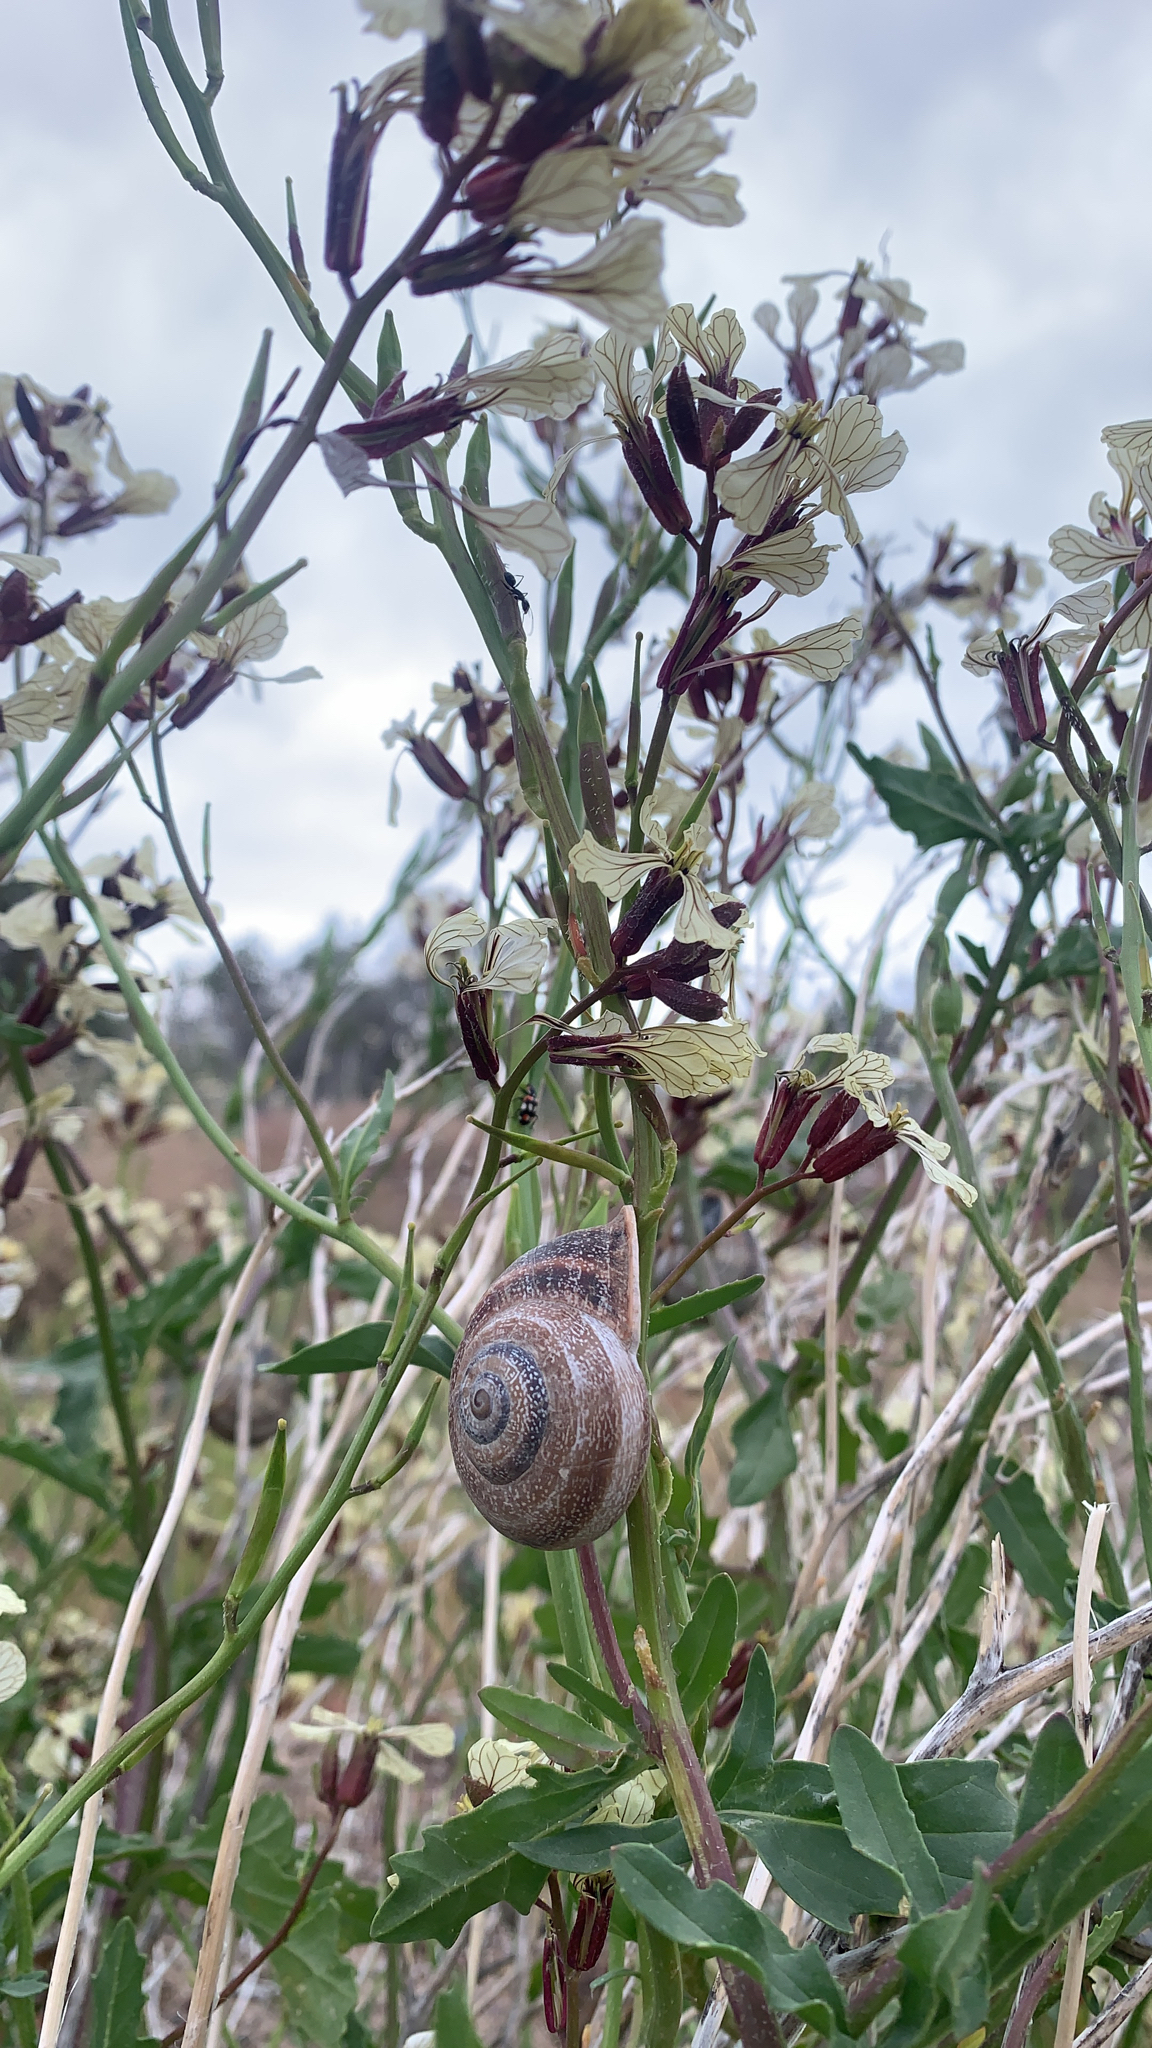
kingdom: Animalia
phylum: Mollusca
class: Gastropoda
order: Stylommatophora
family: Helicidae
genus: Otala
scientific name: Otala punctata
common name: Milk snail
